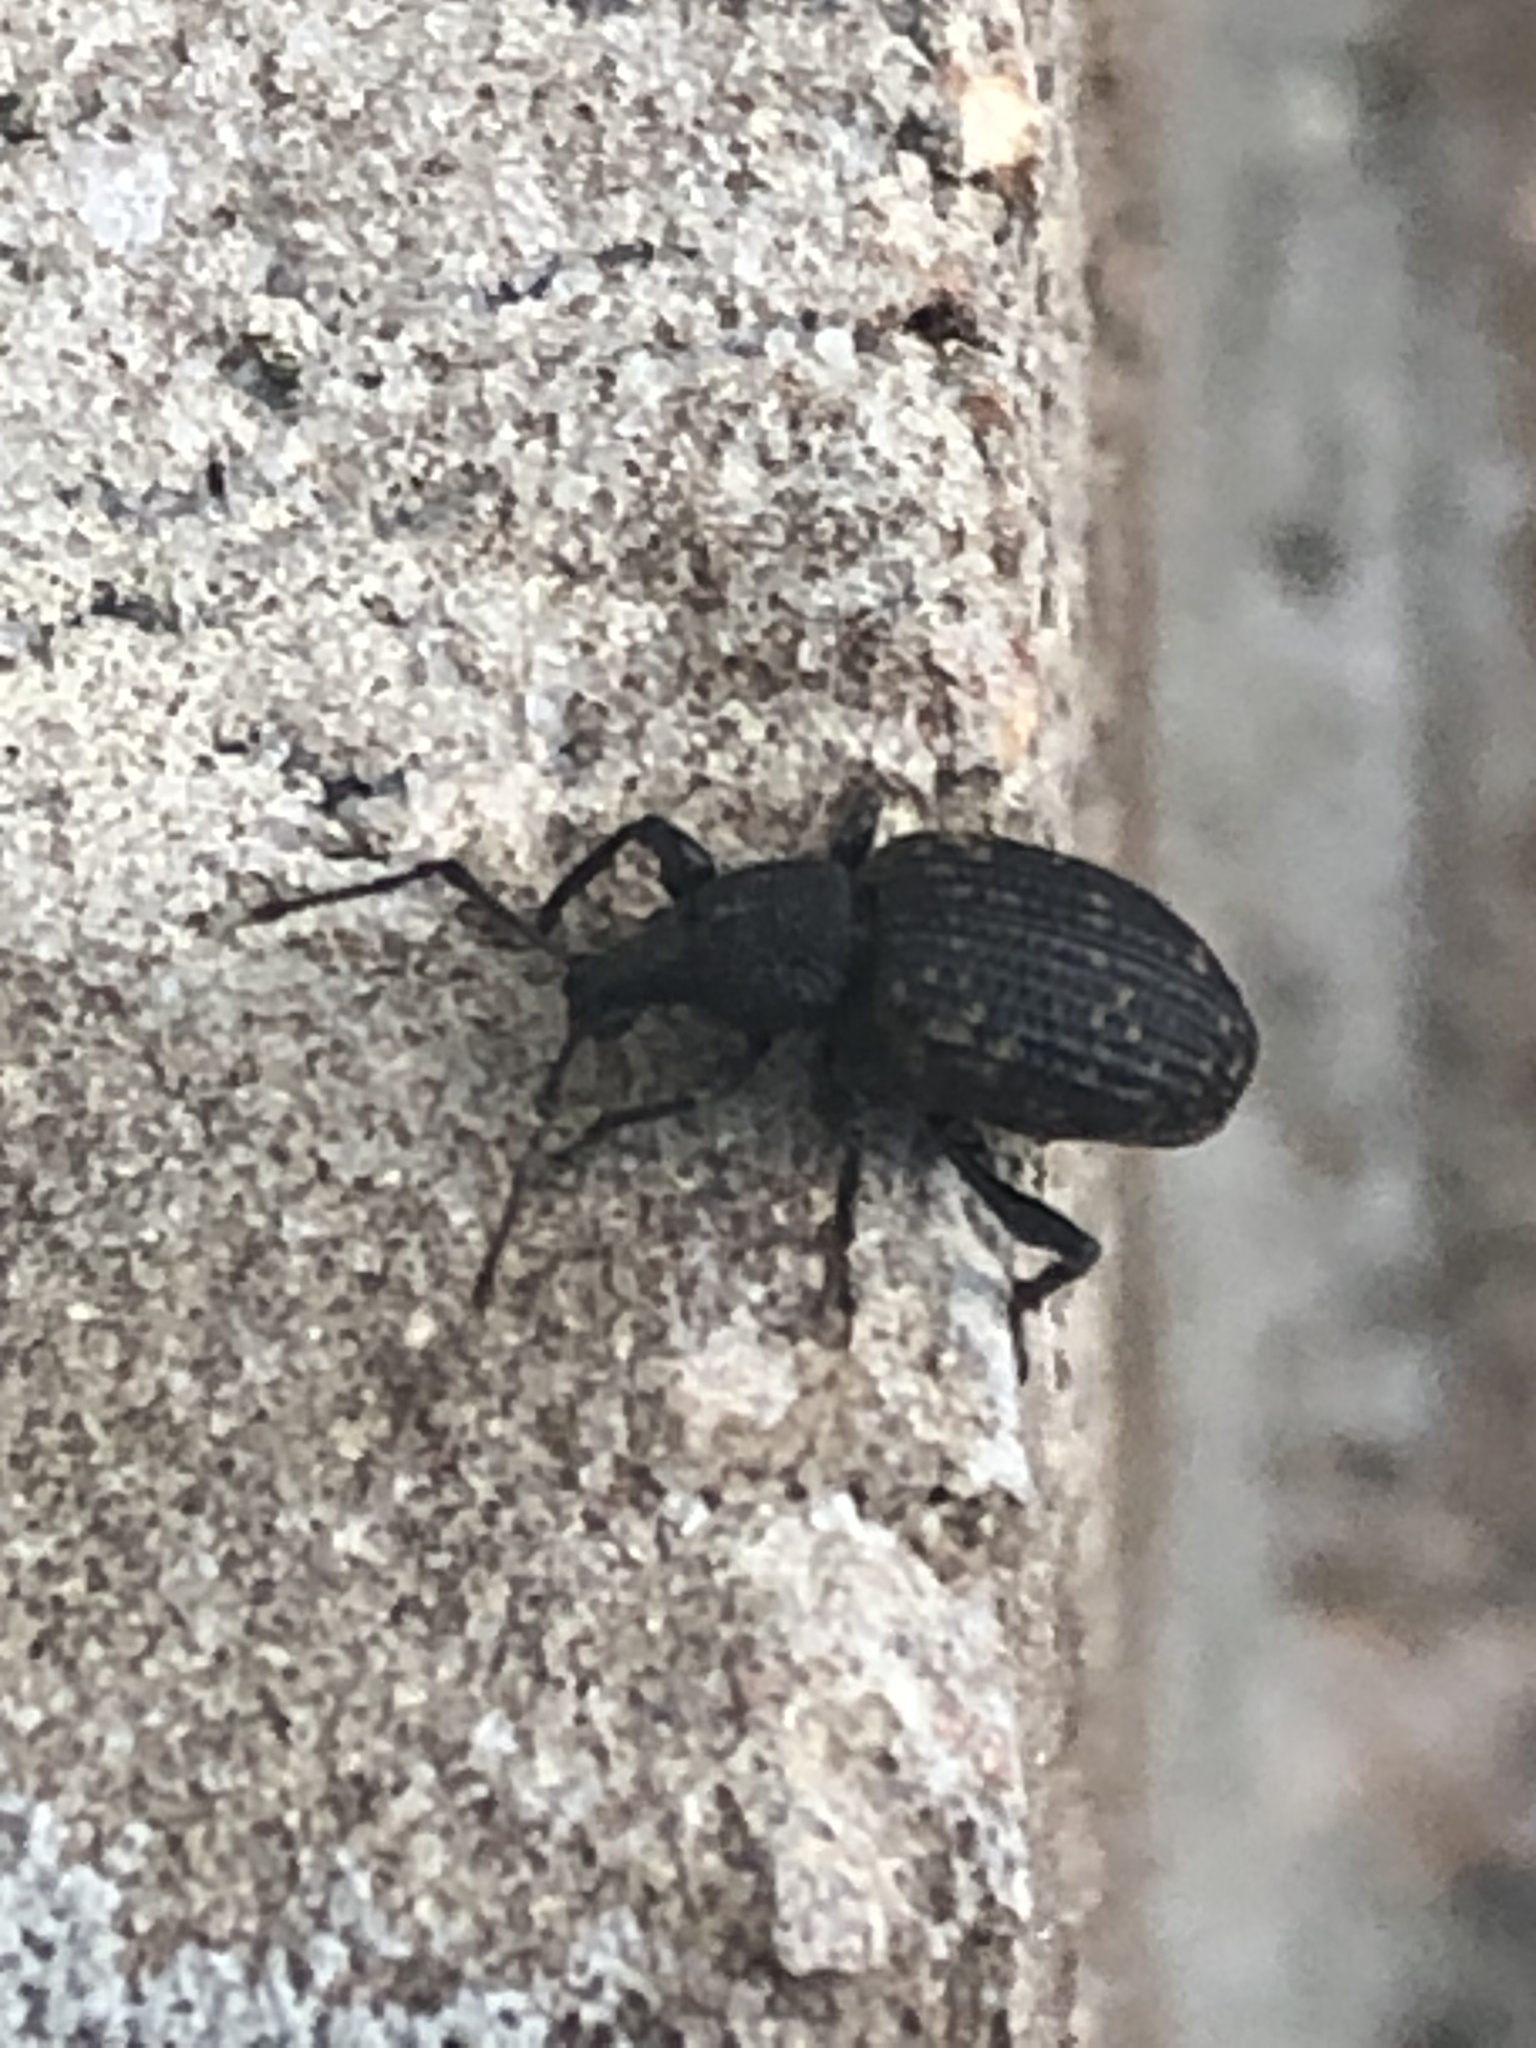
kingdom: Animalia
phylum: Arthropoda
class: Insecta
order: Coleoptera
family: Curculionidae
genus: Otiorhynchus
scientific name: Otiorhynchus sulcatus
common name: Black vine weevil
